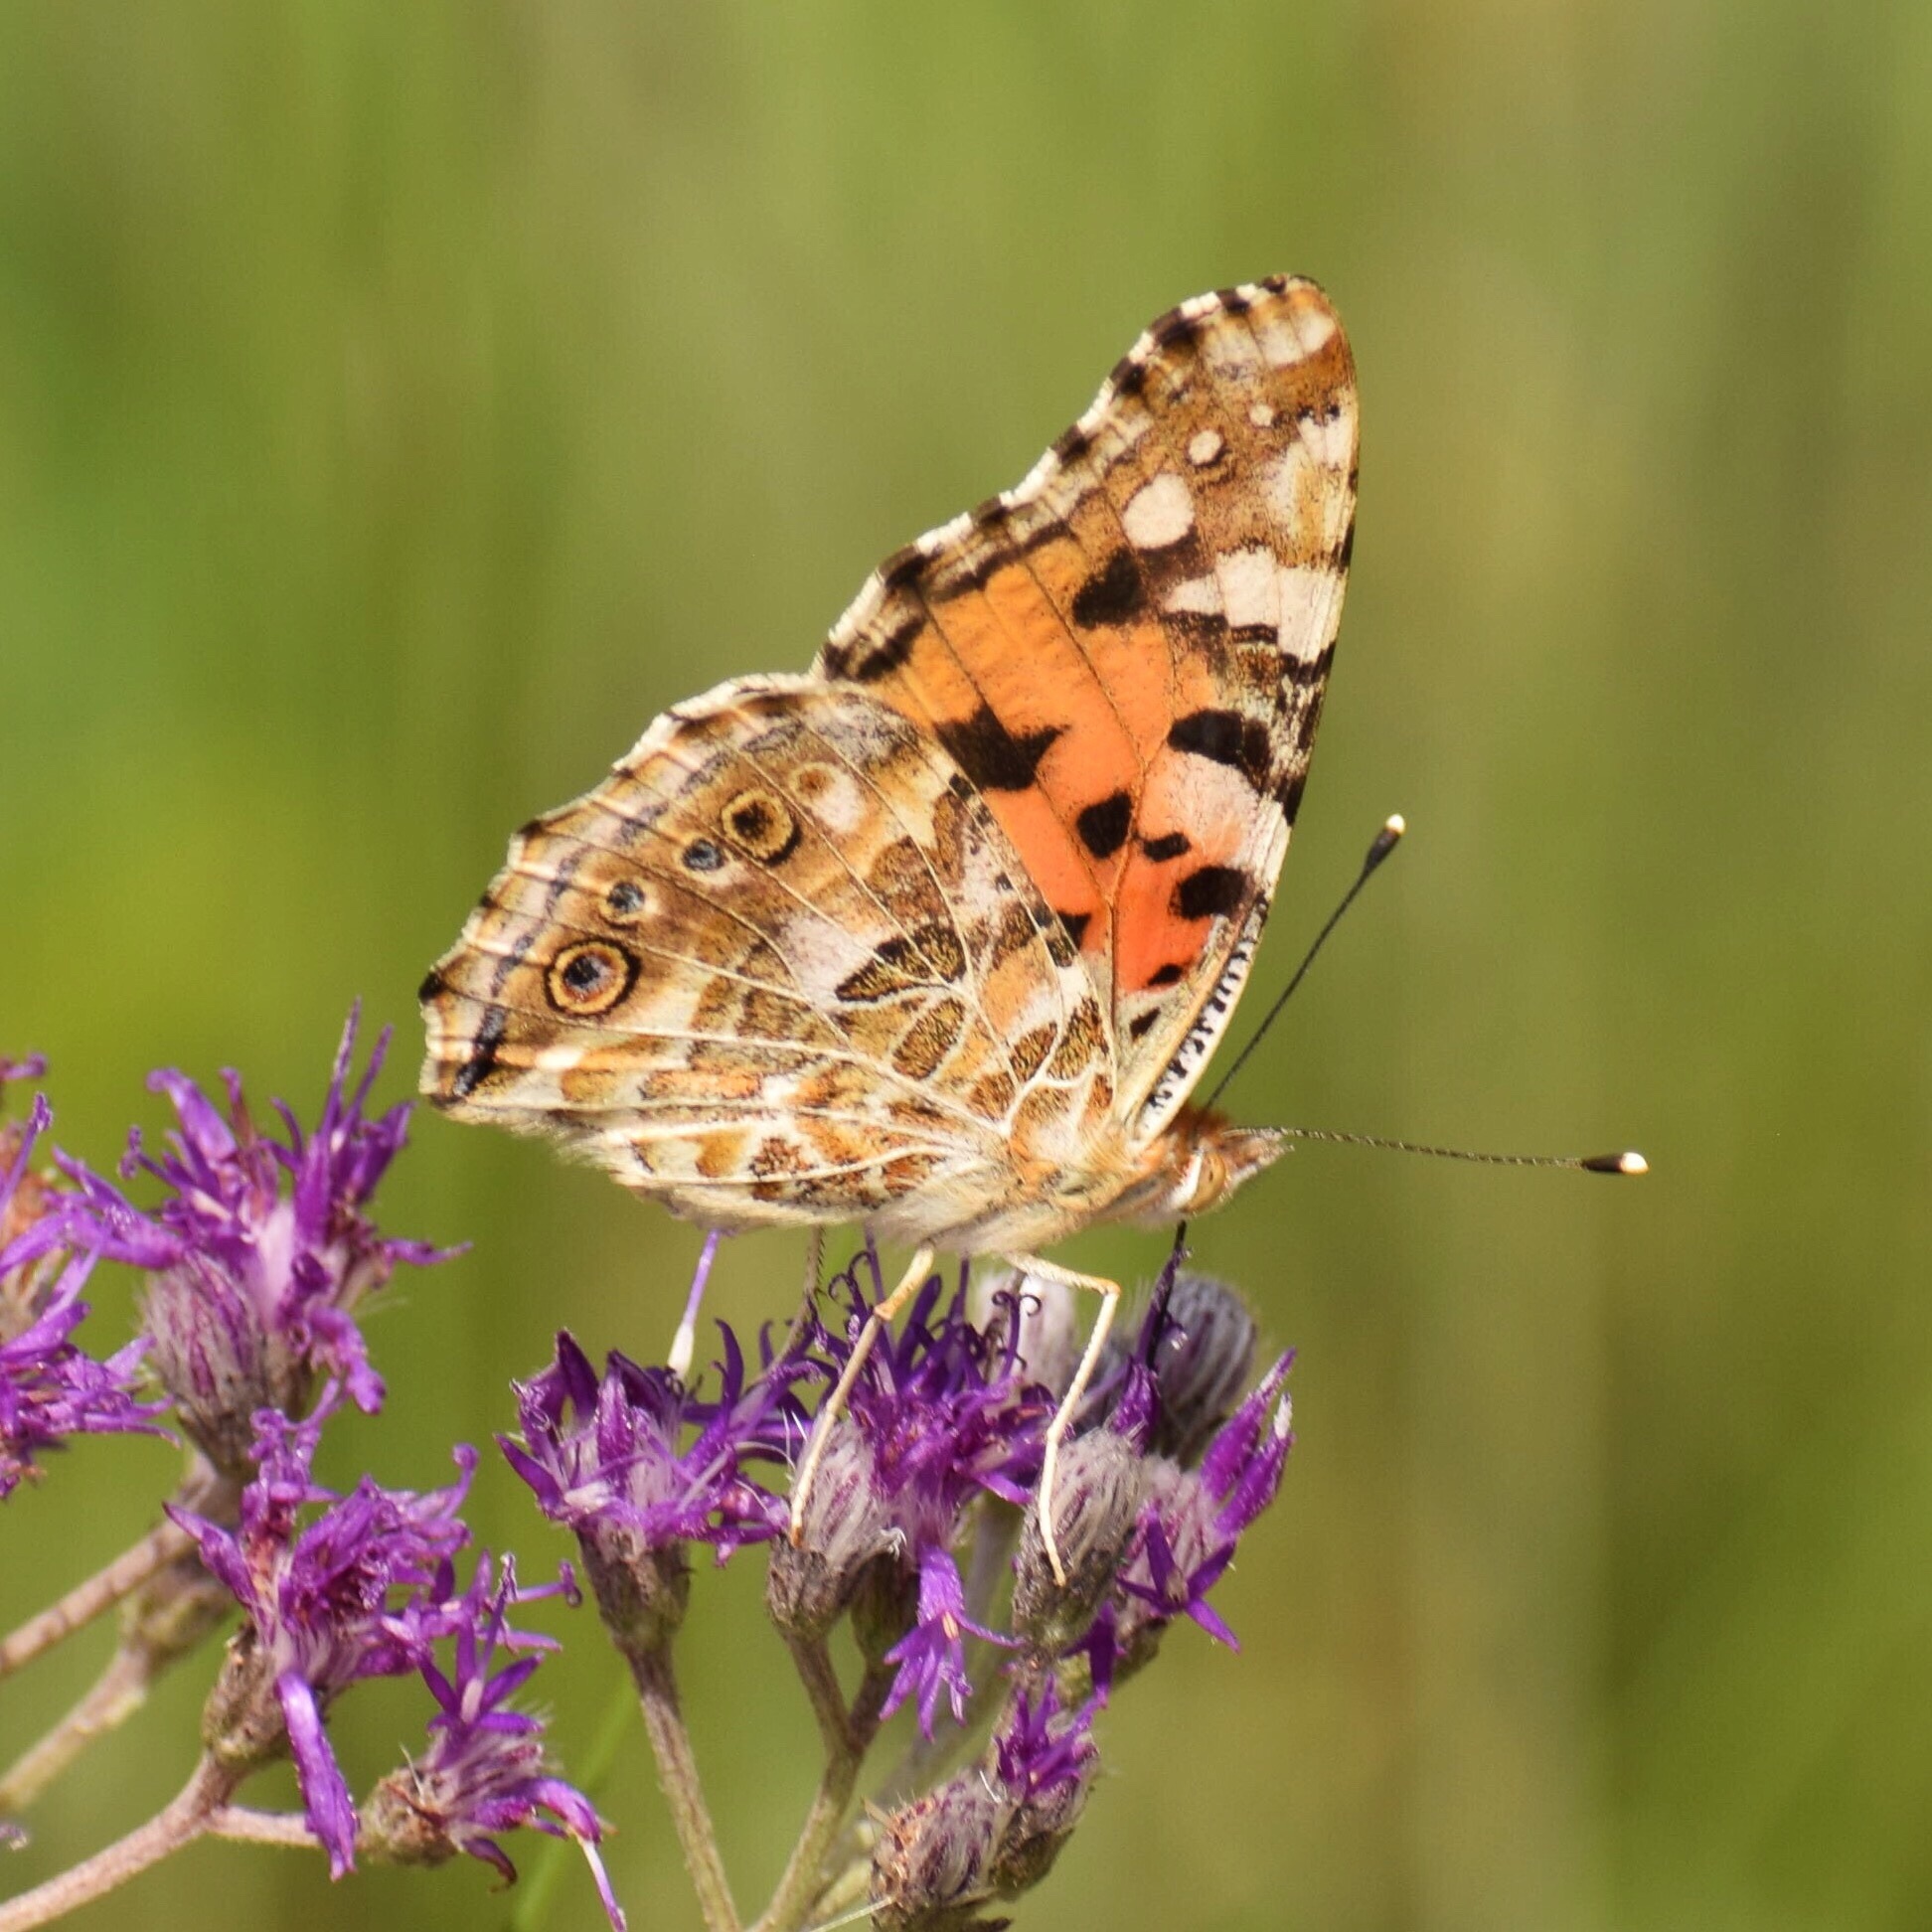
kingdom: Animalia
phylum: Arthropoda
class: Insecta
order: Lepidoptera
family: Nymphalidae
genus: Vanessa
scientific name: Vanessa cardui
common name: Painted lady
